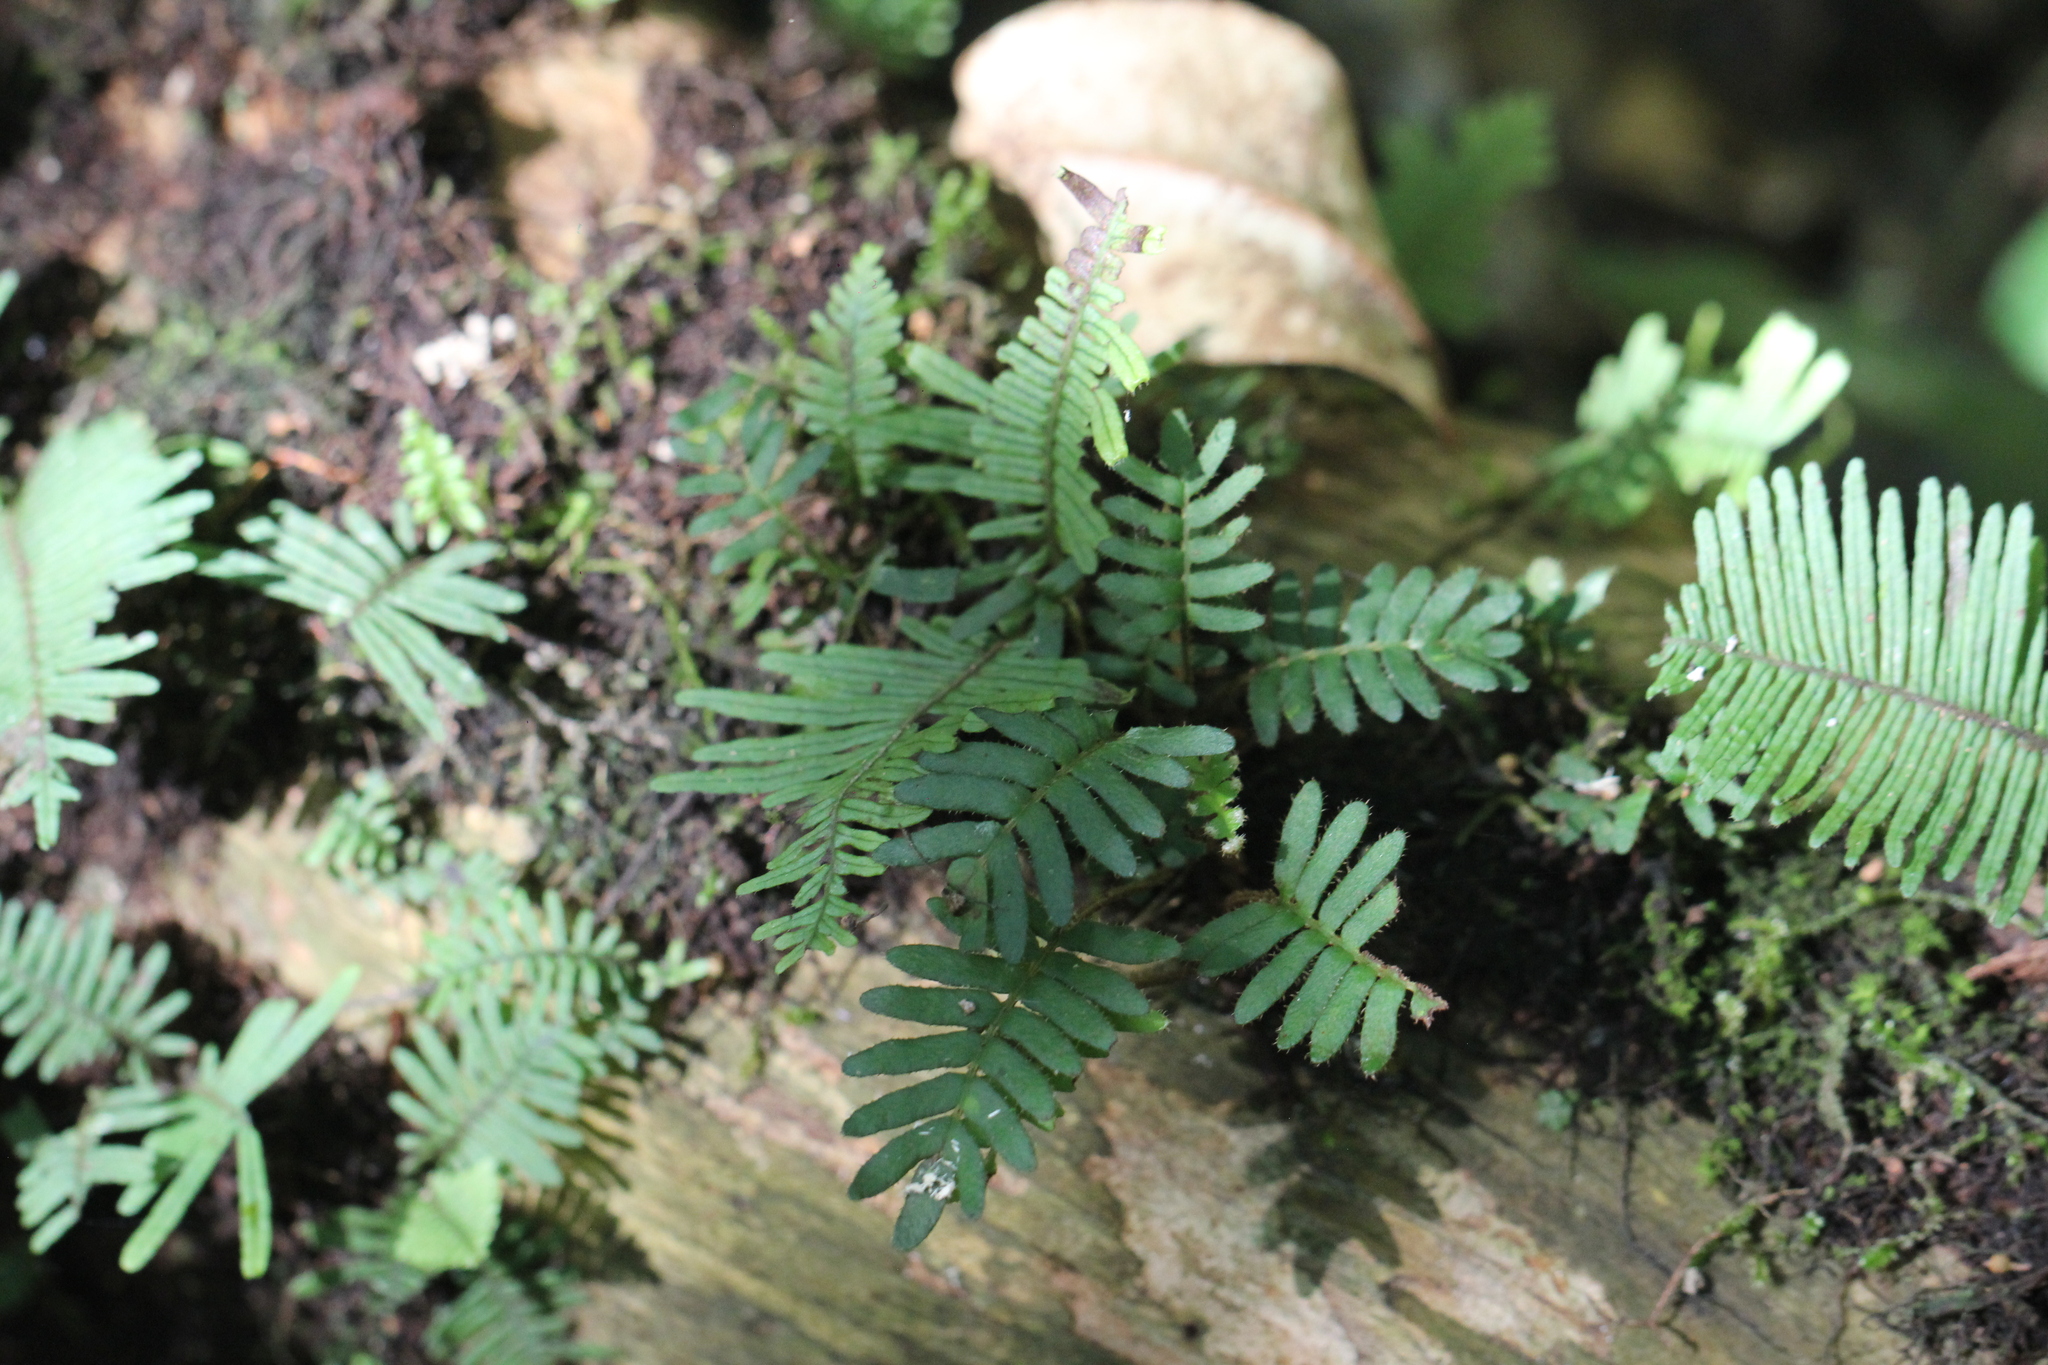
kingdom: Plantae
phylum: Tracheophyta
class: Polypodiopsida
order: Polypodiales
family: Polypodiaceae
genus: Pleopeltis
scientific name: Pleopeltis minima
